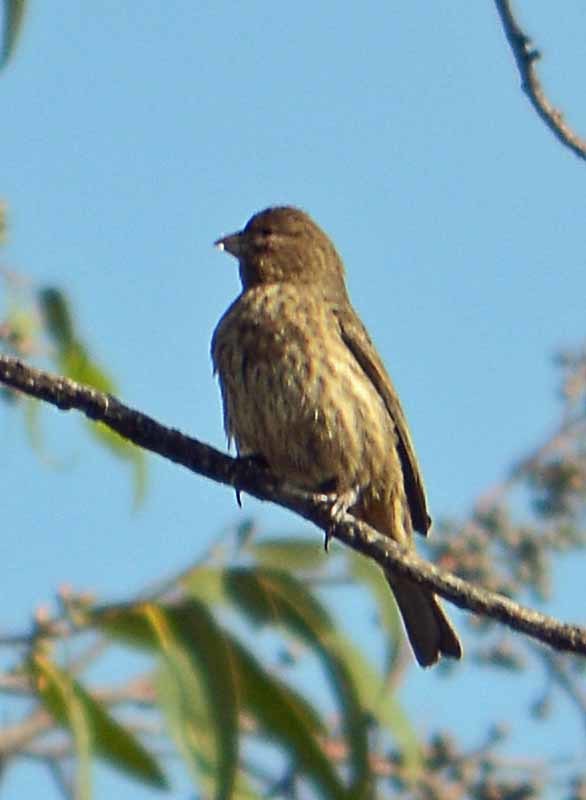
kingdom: Animalia
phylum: Chordata
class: Aves
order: Passeriformes
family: Fringillidae
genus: Haemorhous
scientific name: Haemorhous mexicanus
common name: House finch
